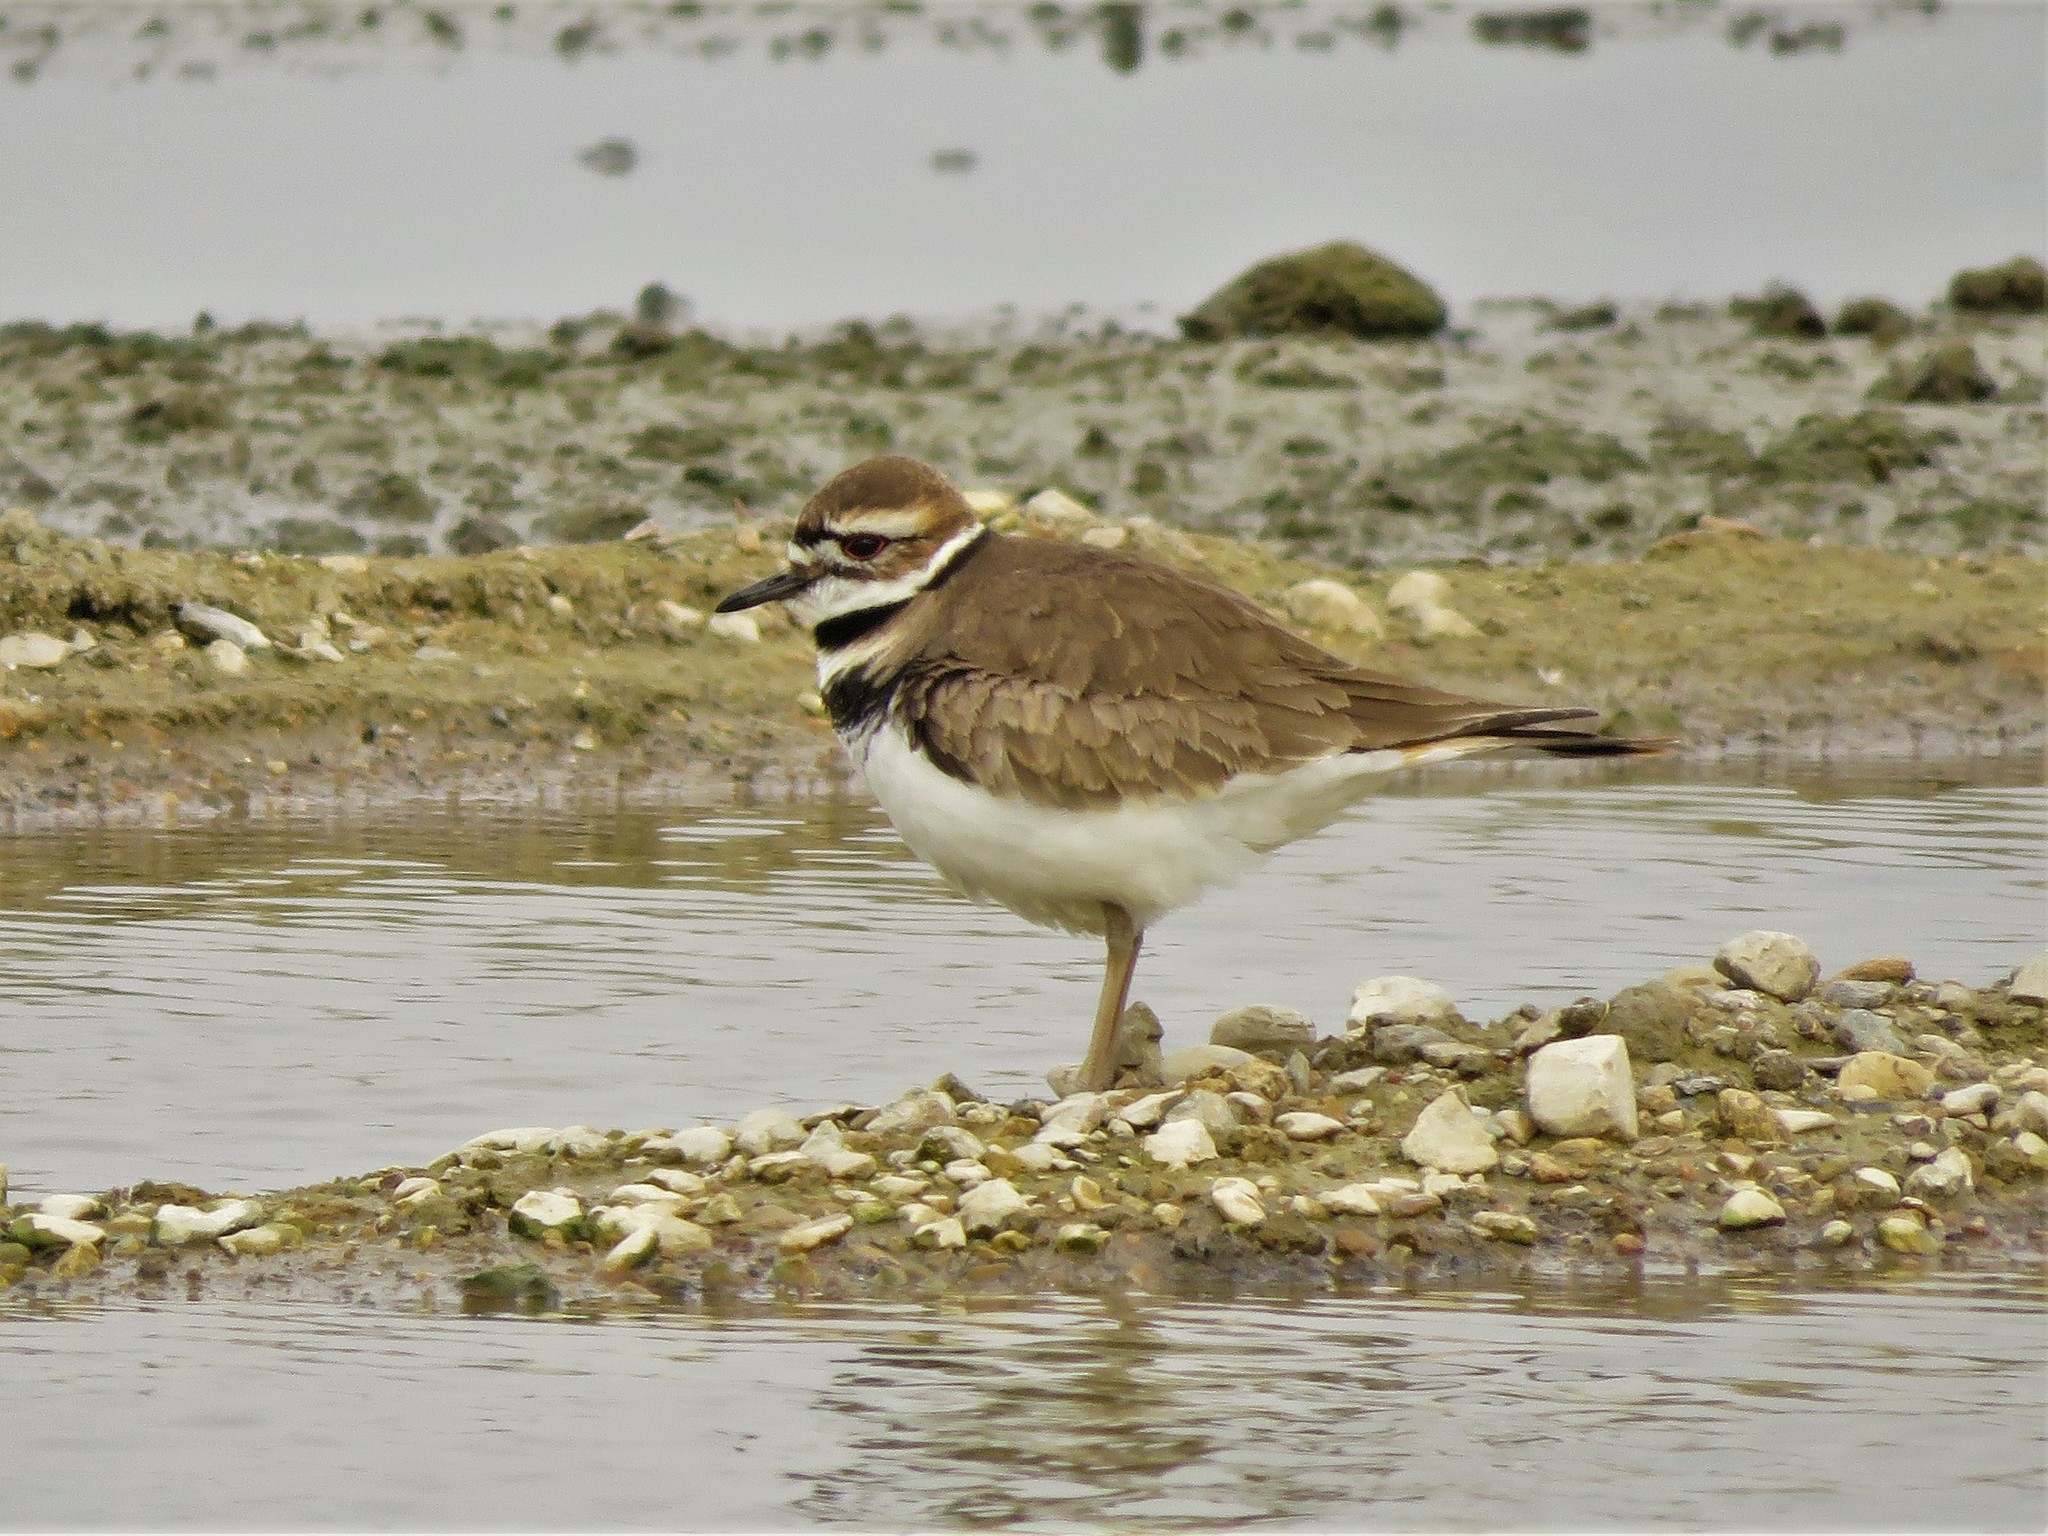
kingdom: Animalia
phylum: Chordata
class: Aves
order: Charadriiformes
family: Charadriidae
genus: Charadrius
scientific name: Charadrius vociferus
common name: Killdeer
